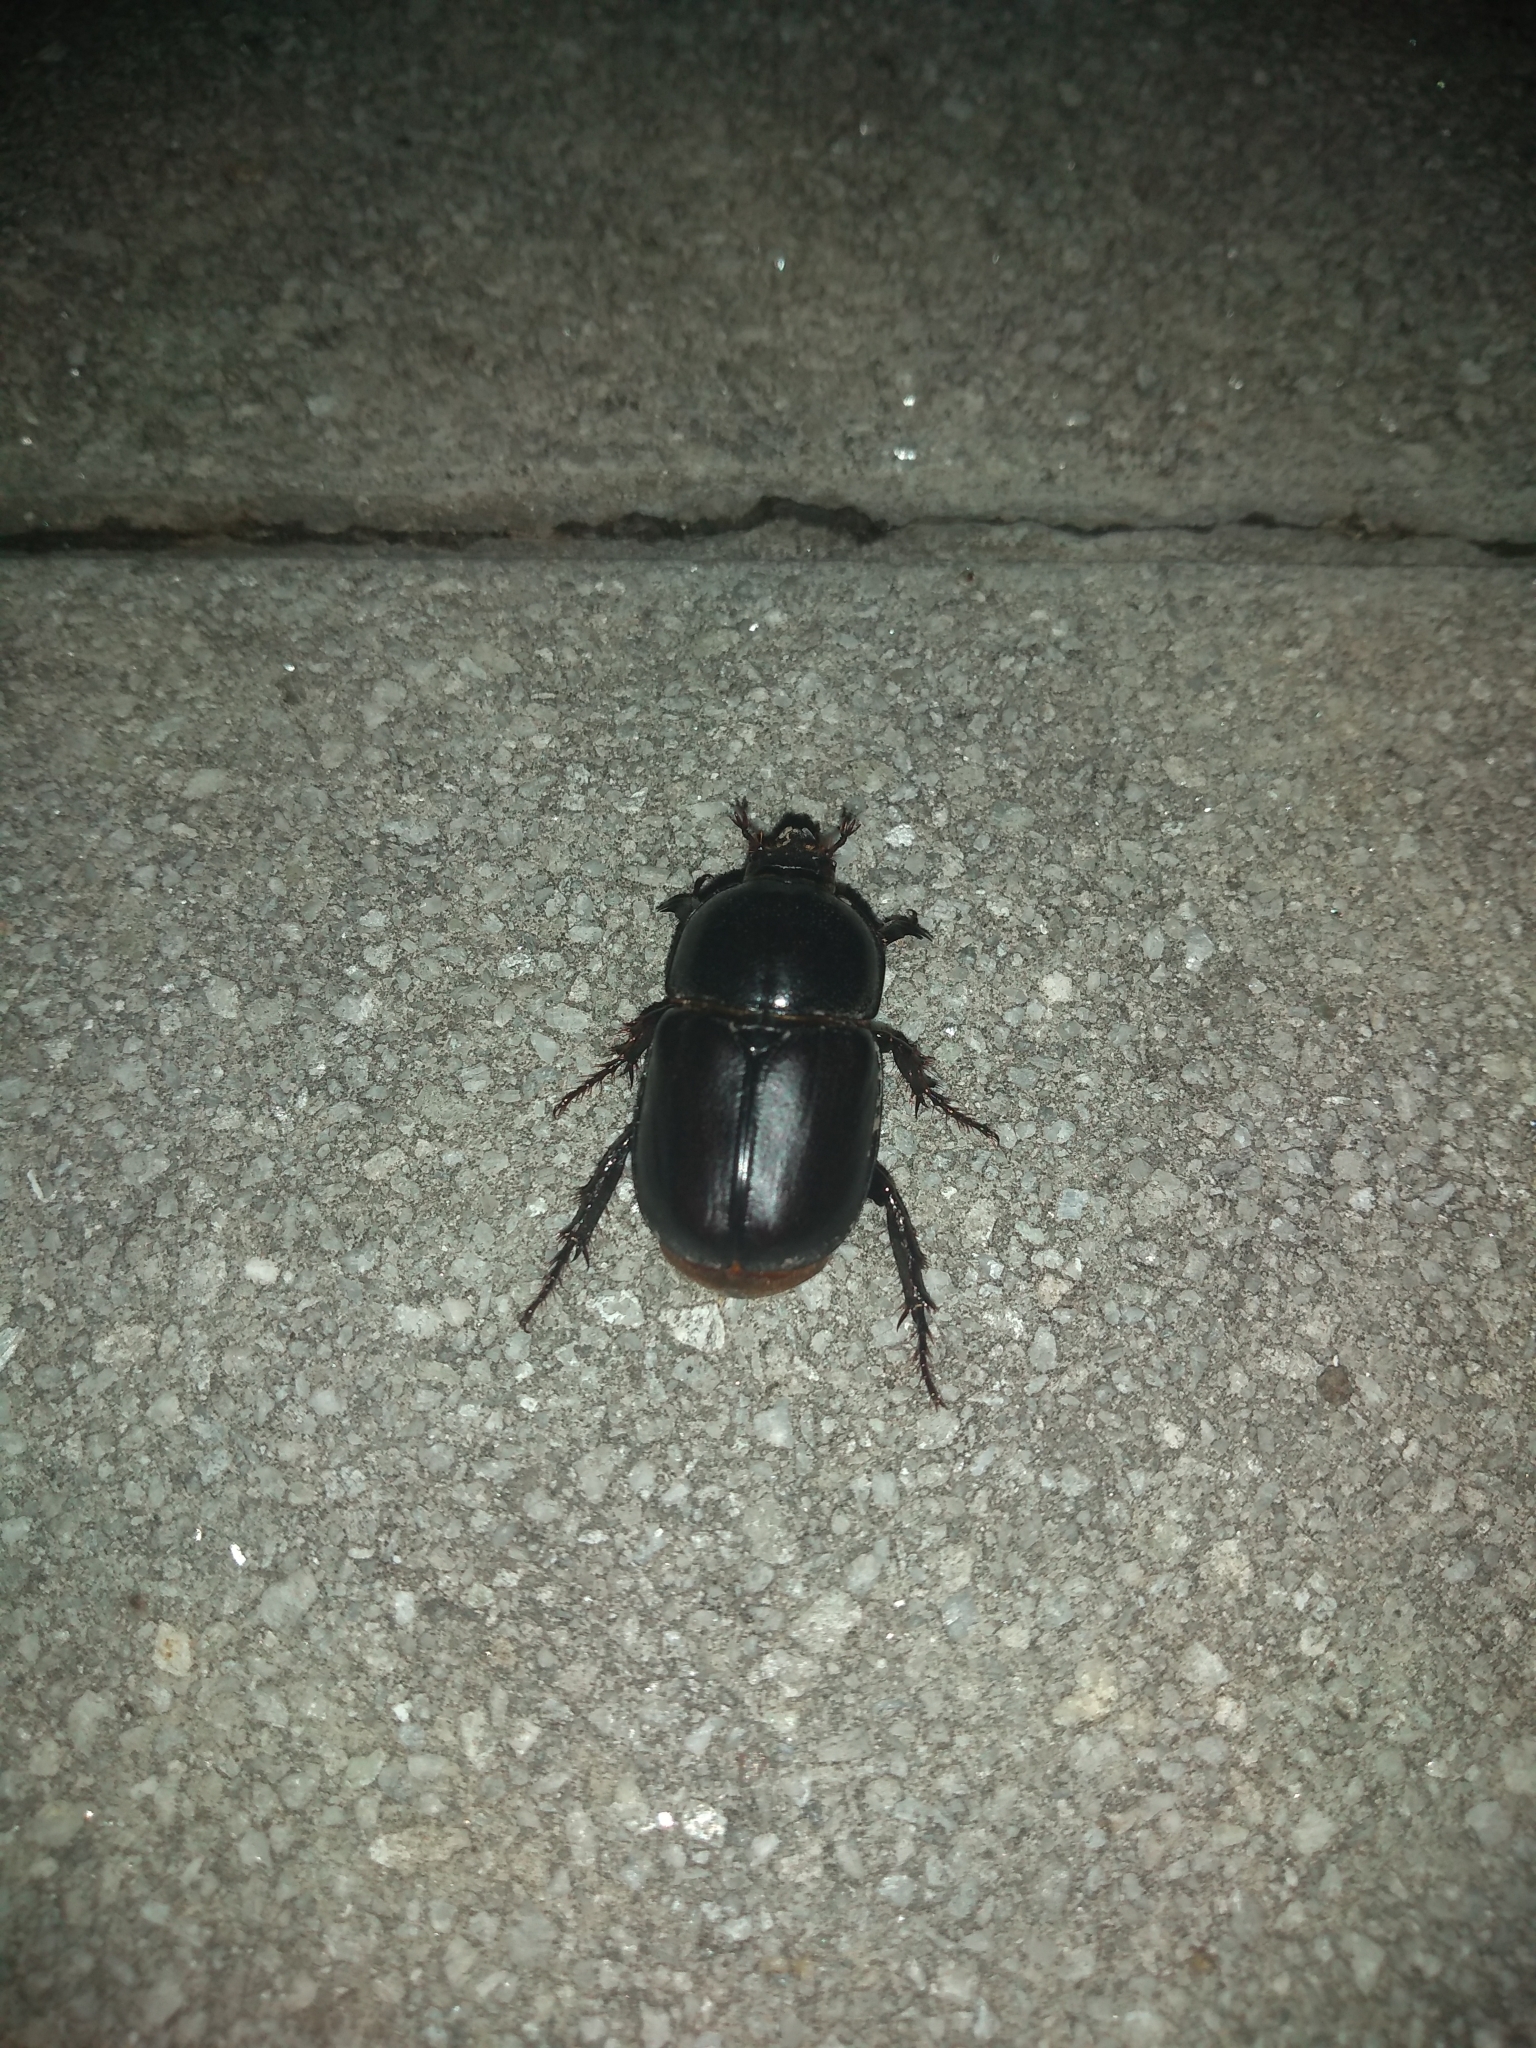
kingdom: Animalia
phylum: Arthropoda
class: Insecta
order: Coleoptera
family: Scarabaeidae
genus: Diloboderus
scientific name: Diloboderus abderus
